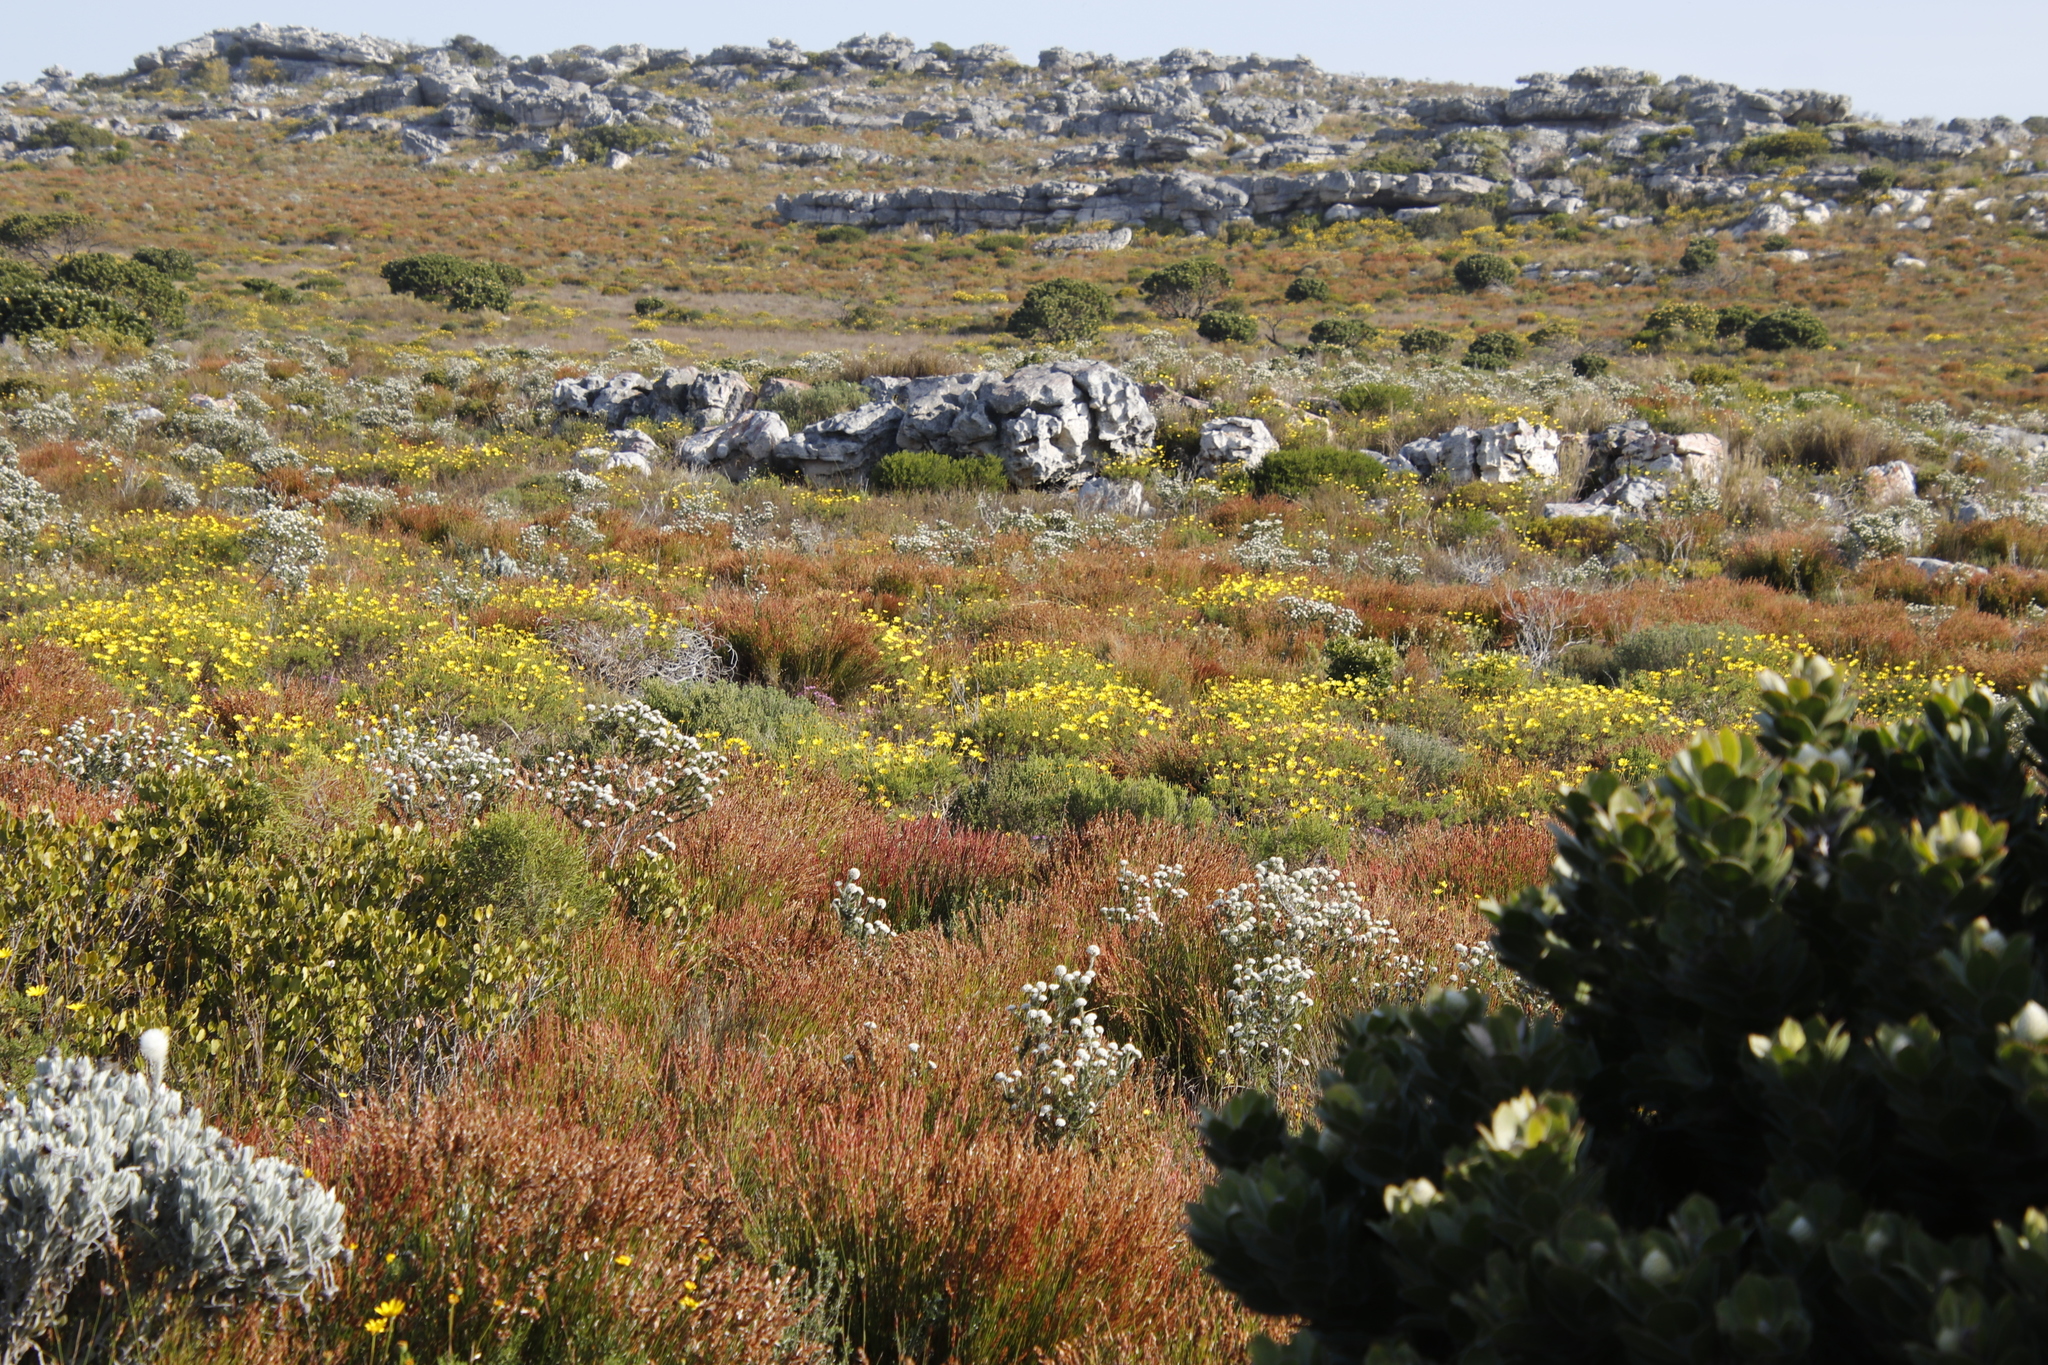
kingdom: Plantae
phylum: Tracheophyta
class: Magnoliopsida
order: Asterales
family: Asteraceae
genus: Euryops
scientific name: Euryops abrotanifolius
